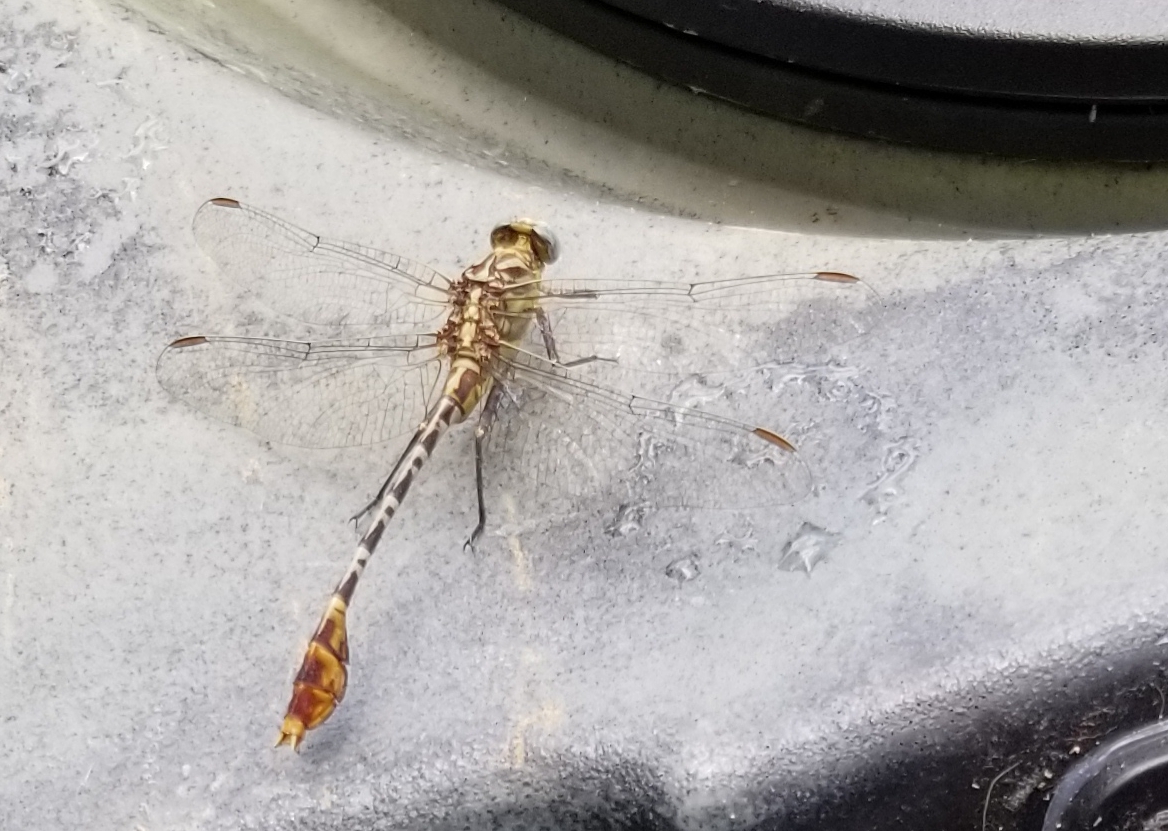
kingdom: Animalia
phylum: Arthropoda
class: Insecta
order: Odonata
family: Gomphidae
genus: Dromogomphus
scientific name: Dromogomphus spoliatus
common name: Flag-tailed spinyleg
